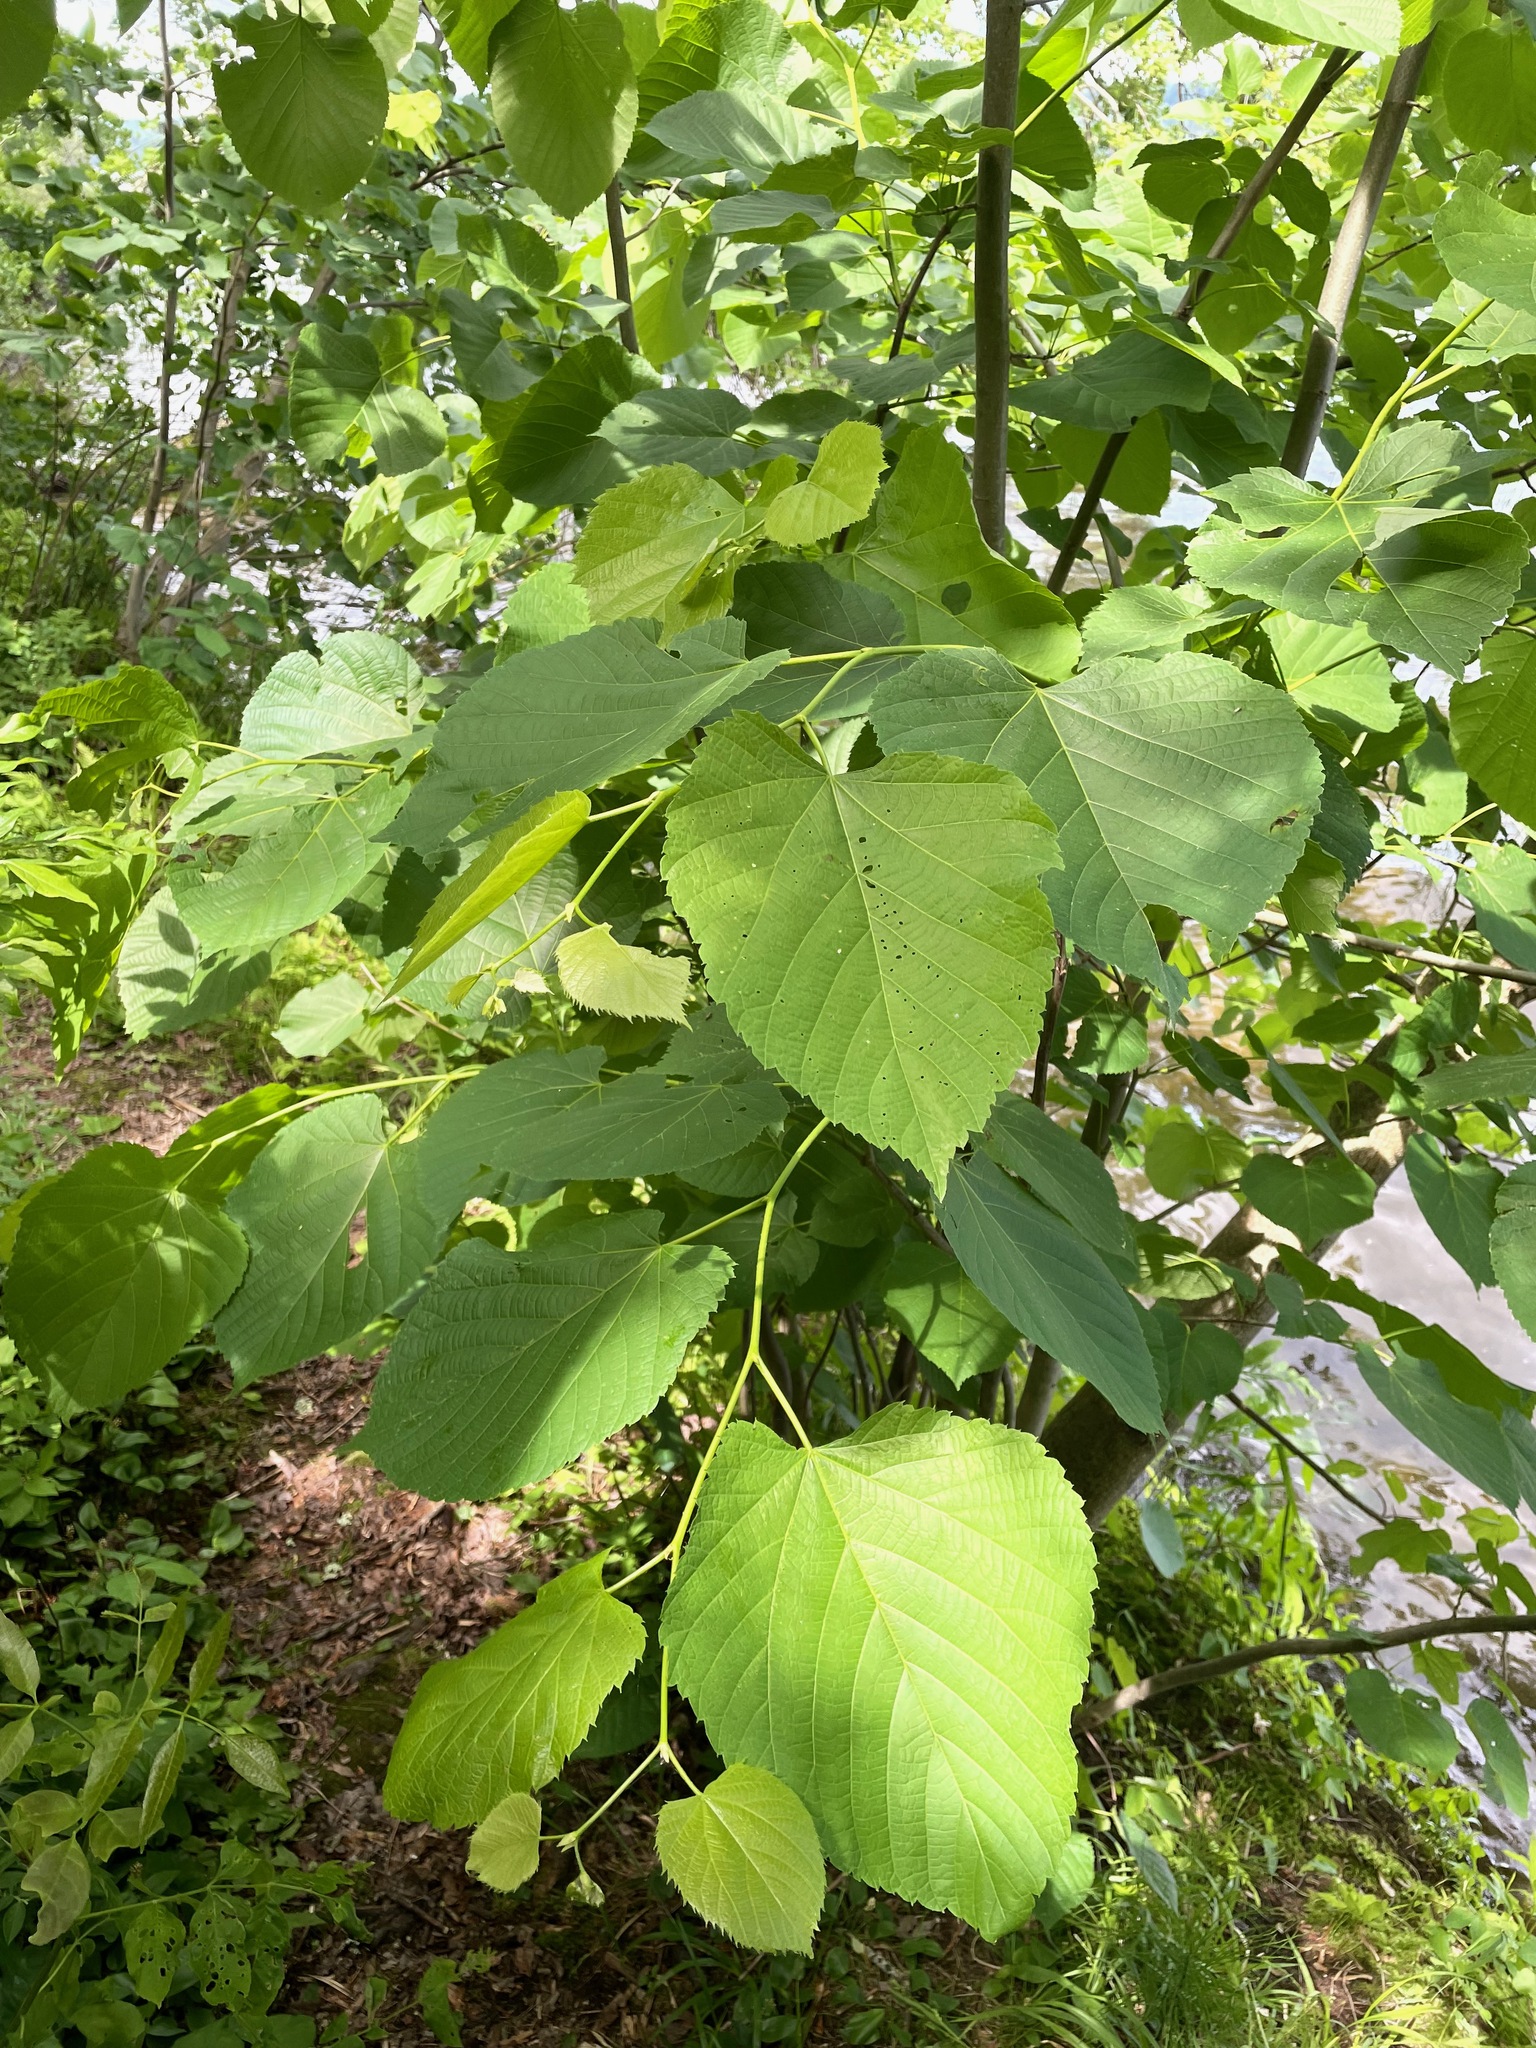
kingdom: Plantae
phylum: Tracheophyta
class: Magnoliopsida
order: Malvales
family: Malvaceae
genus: Tilia
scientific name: Tilia americana
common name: Basswood
